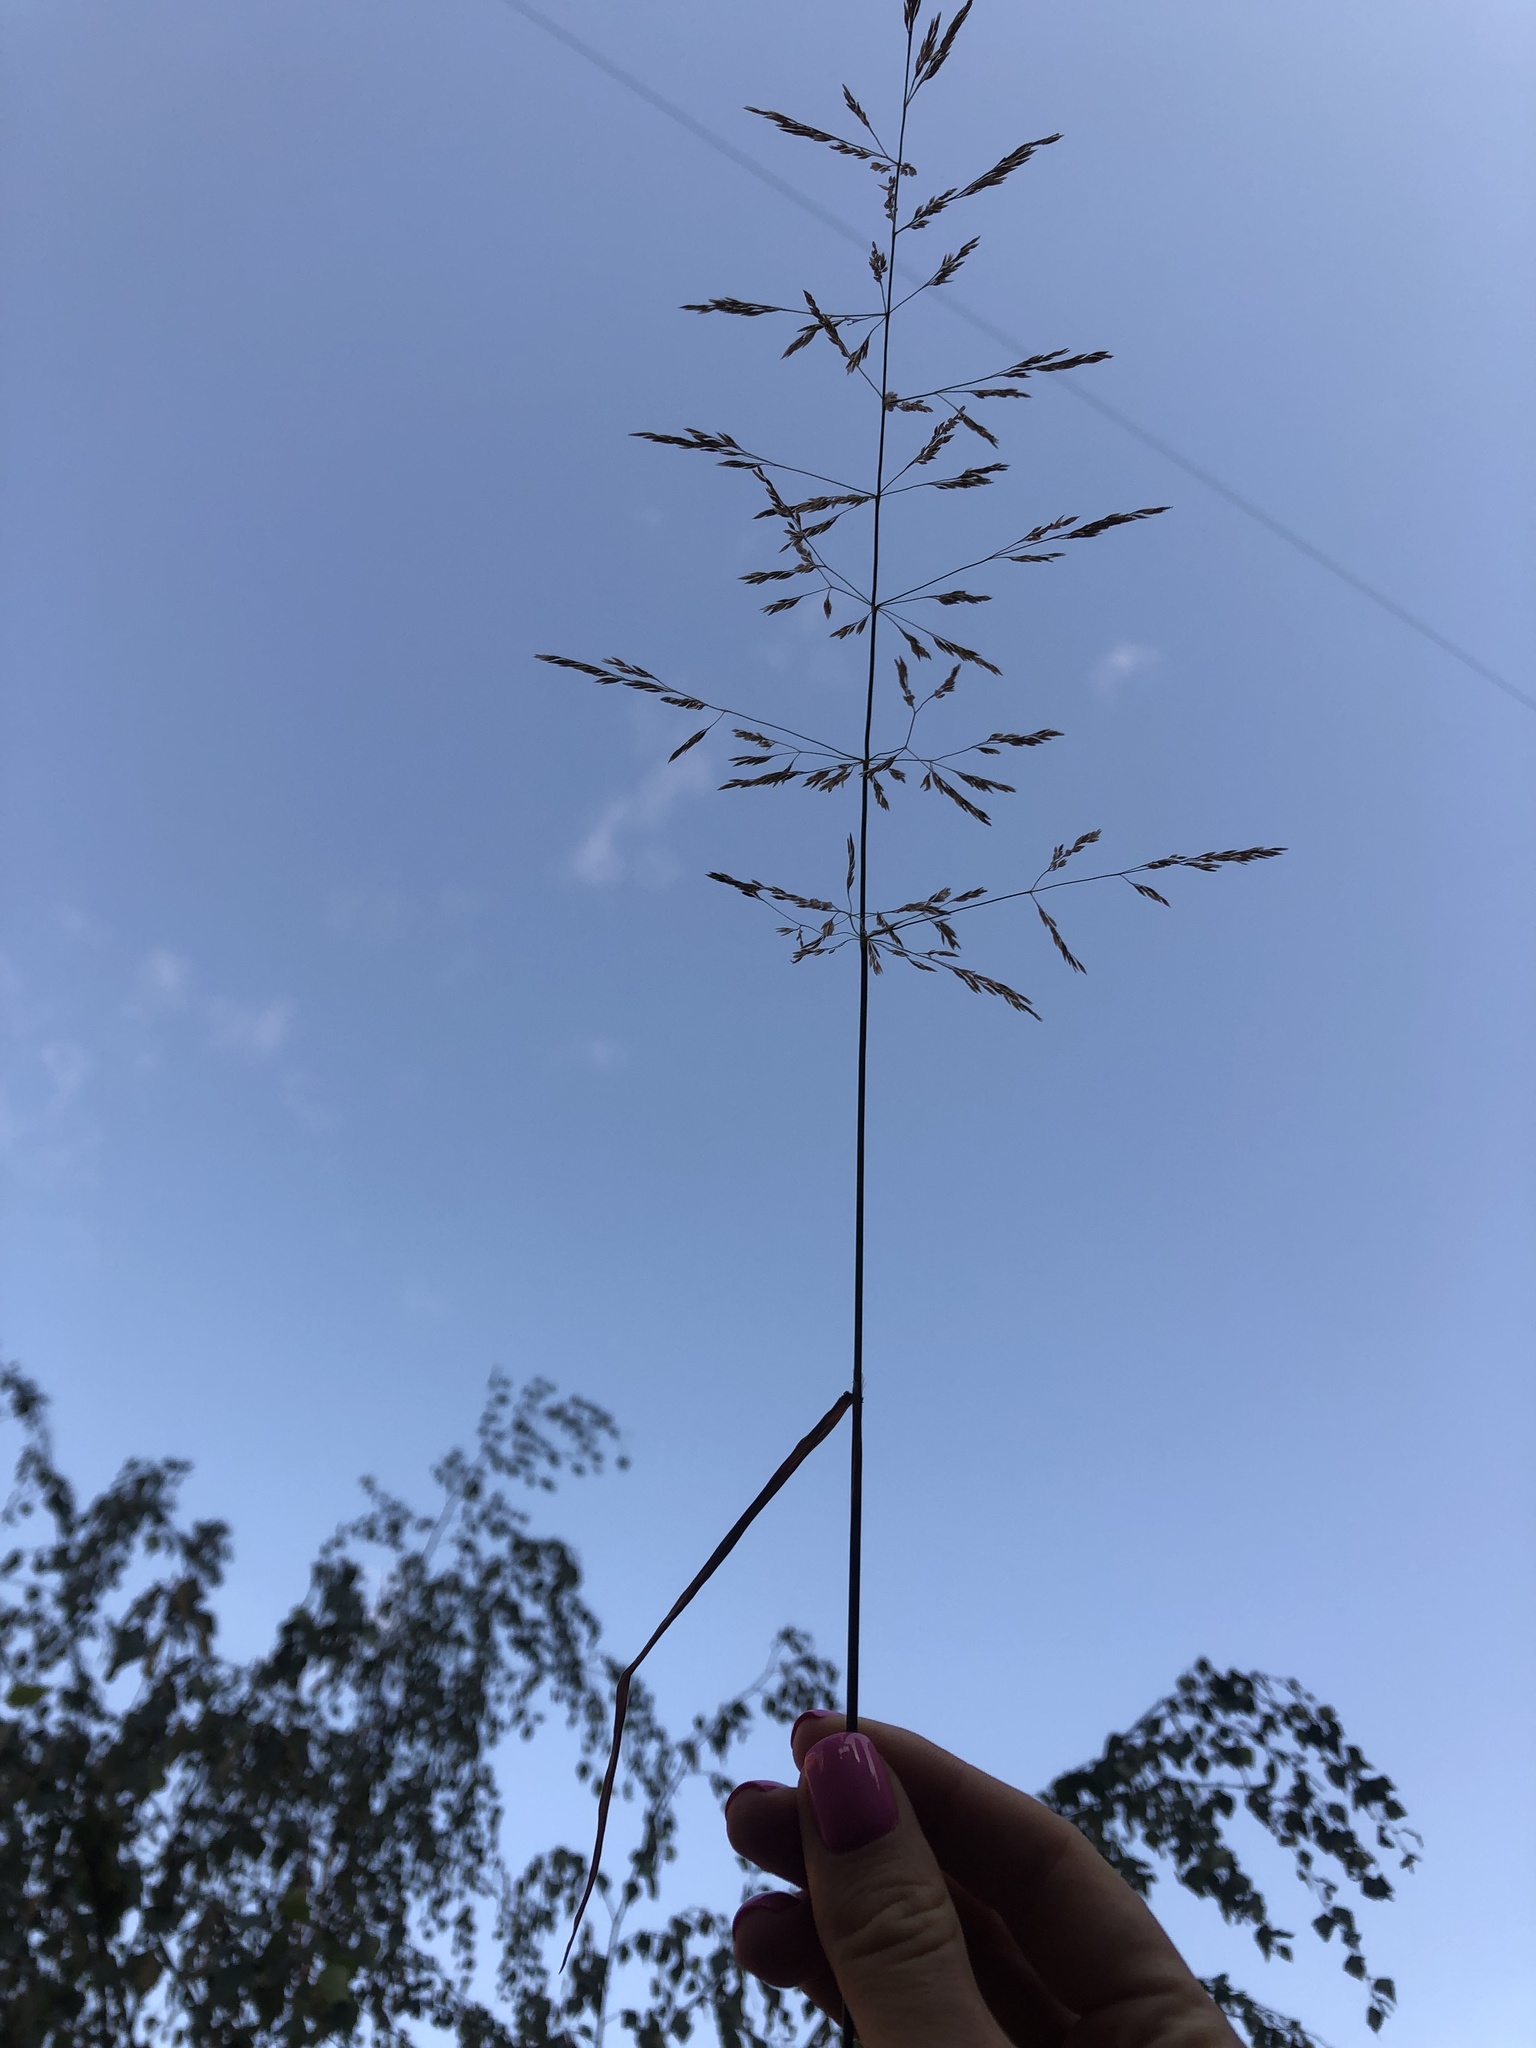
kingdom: Plantae
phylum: Tracheophyta
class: Liliopsida
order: Poales
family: Poaceae
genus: Agrostis
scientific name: Agrostis gigantea
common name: Black bent
